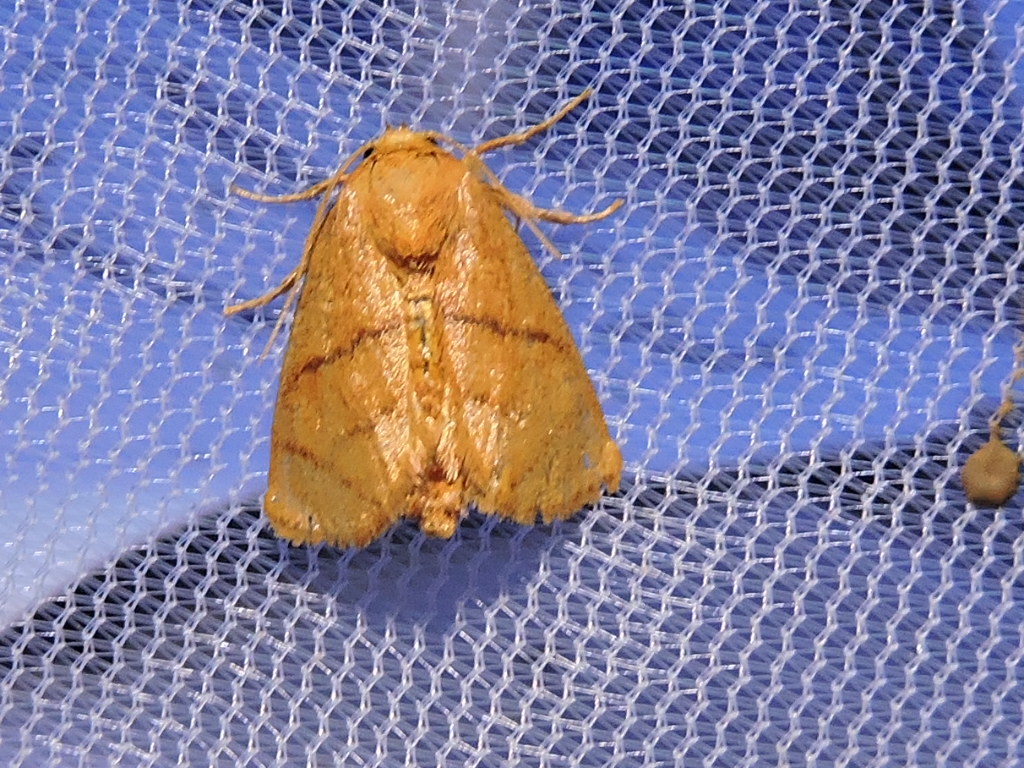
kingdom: Animalia
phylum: Arthropoda
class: Insecta
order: Lepidoptera
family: Limacodidae
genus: Apoda
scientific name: Apoda y-inversa
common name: Yellow-collared slug moth
